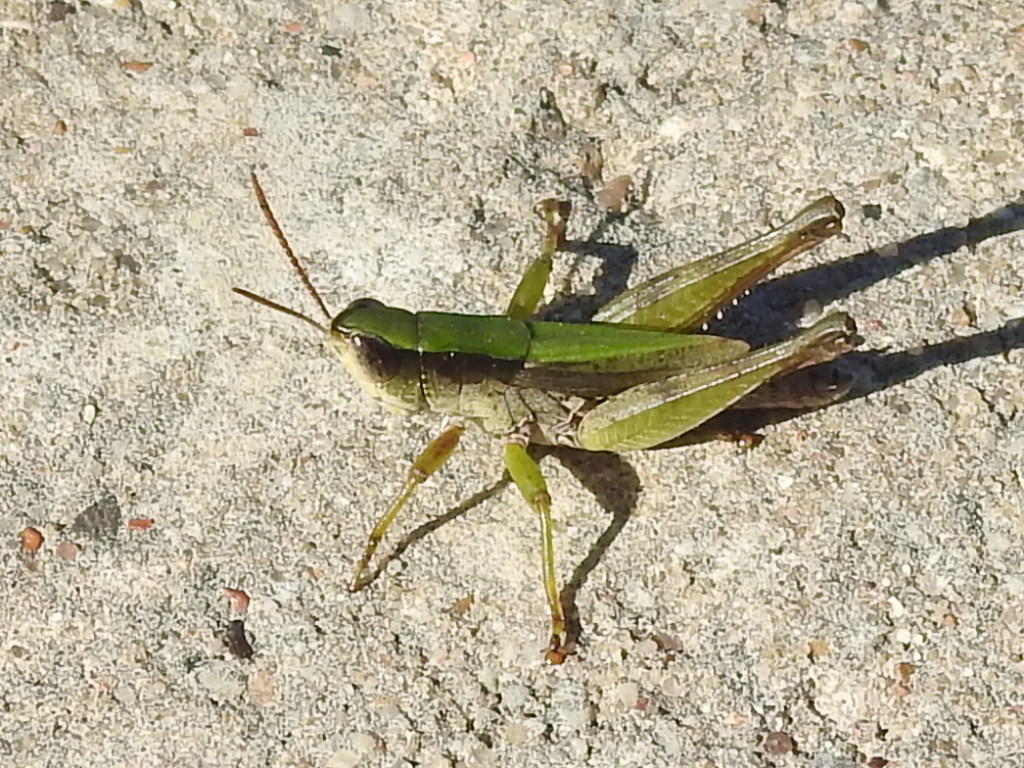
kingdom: Animalia
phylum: Arthropoda
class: Insecta
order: Orthoptera
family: Acrididae
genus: Dichromorpha
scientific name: Dichromorpha viridis
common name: Short-winged green grasshopper
